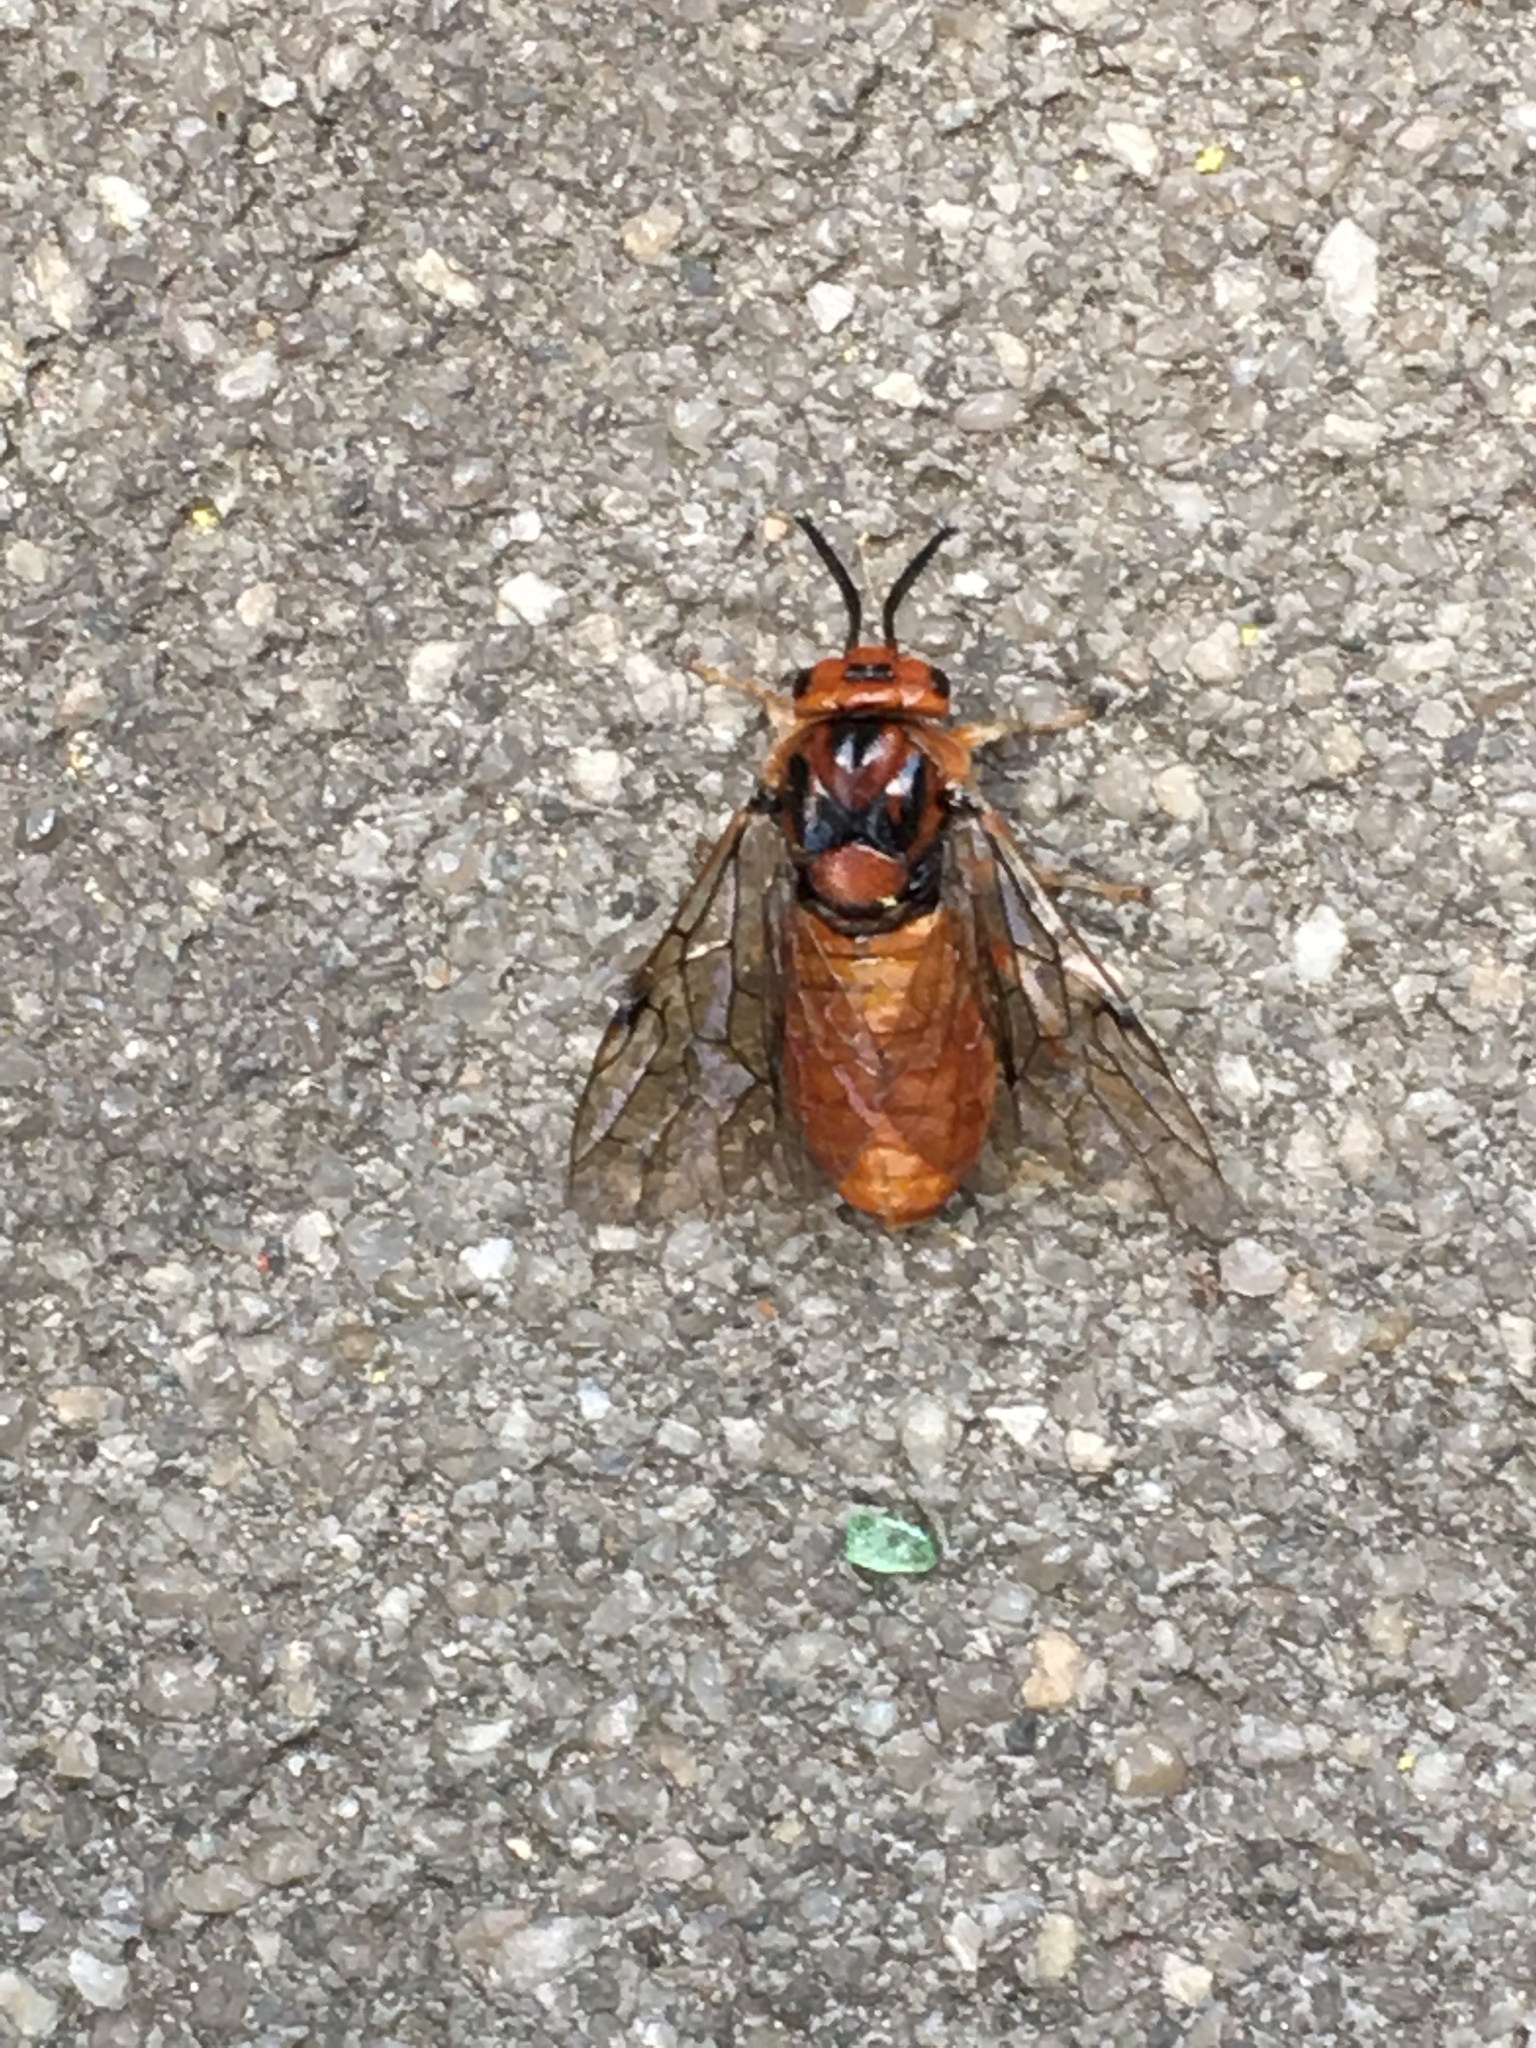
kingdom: Animalia
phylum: Arthropoda
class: Insecta
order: Hymenoptera
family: Diprionidae
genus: Gilpinia
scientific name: Gilpinia socia
